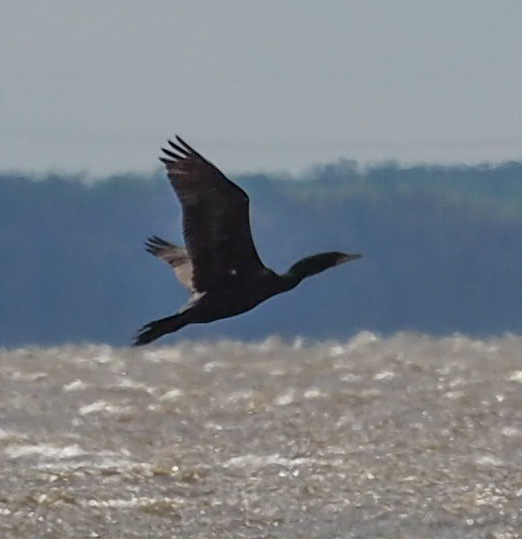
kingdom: Animalia
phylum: Chordata
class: Aves
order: Suliformes
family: Phalacrocoracidae
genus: Phalacrocorax
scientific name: Phalacrocorax auritus
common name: Double-crested cormorant
